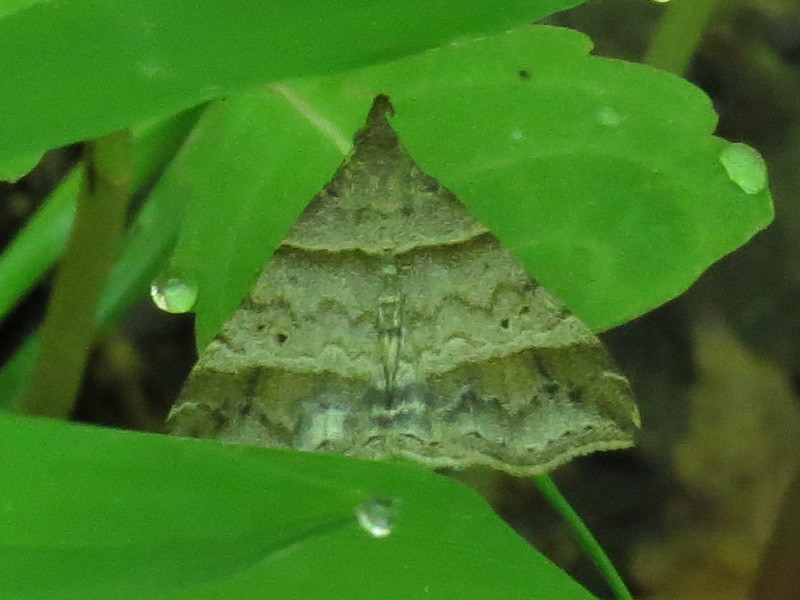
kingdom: Animalia
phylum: Arthropoda
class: Insecta
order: Lepidoptera
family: Erebidae
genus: Phaeolita
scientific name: Phaeolita pyramusalis
